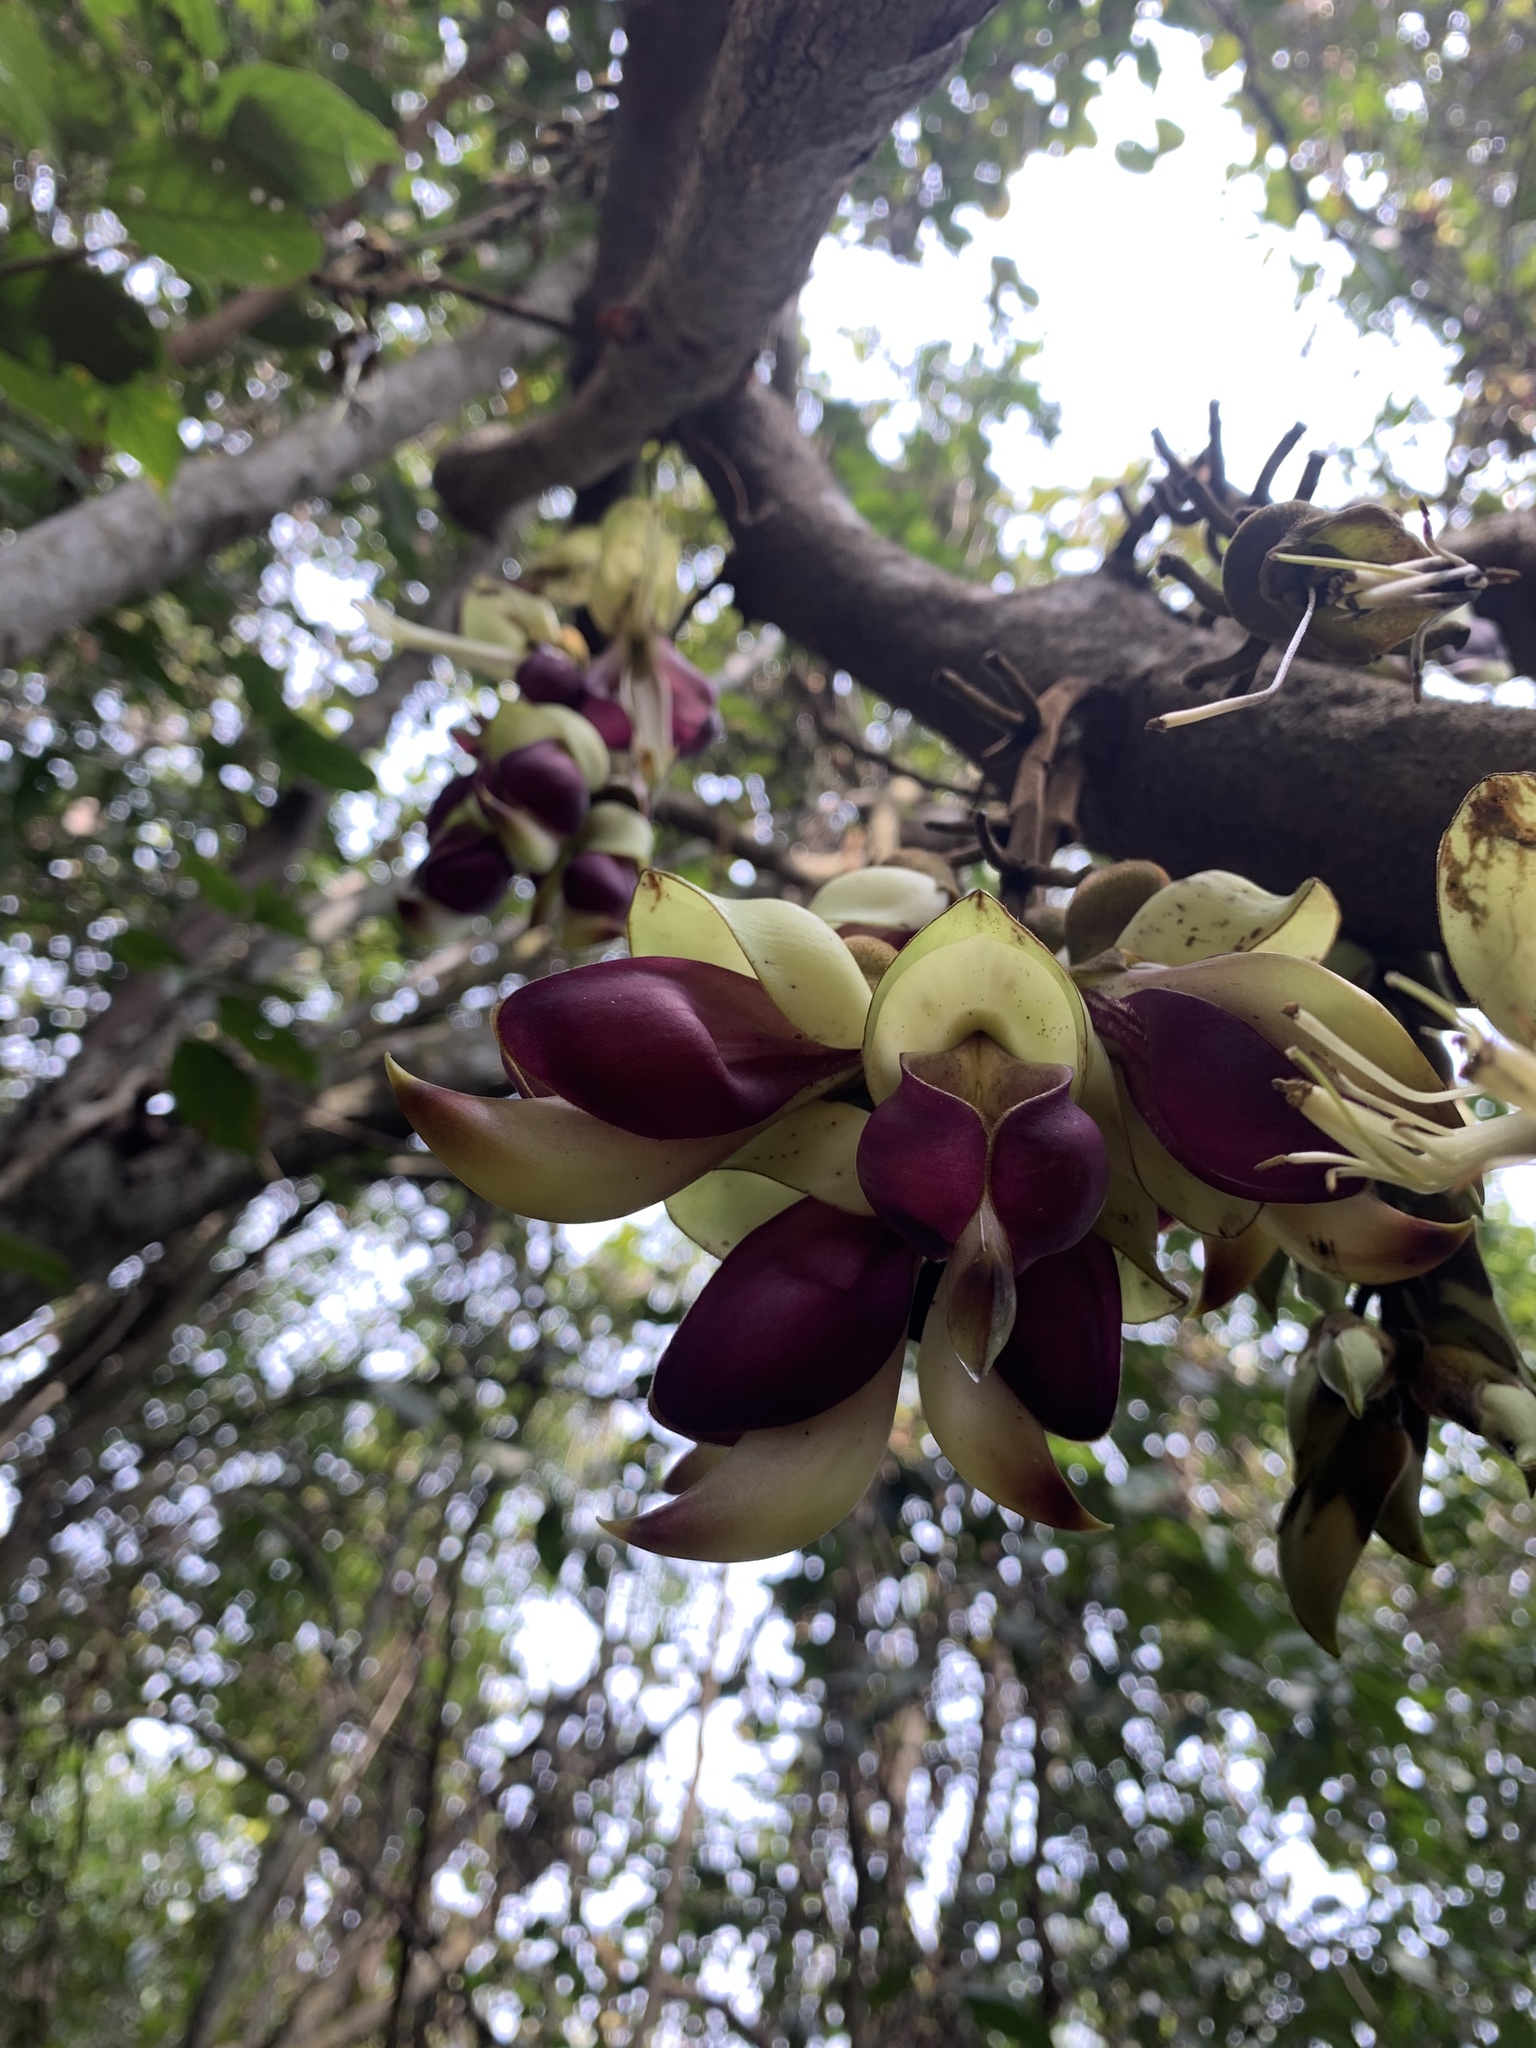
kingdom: Plantae
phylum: Tracheophyta
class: Magnoliopsida
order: Fabales
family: Fabaceae
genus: Mucuna
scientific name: Mucuna macrocarpa
